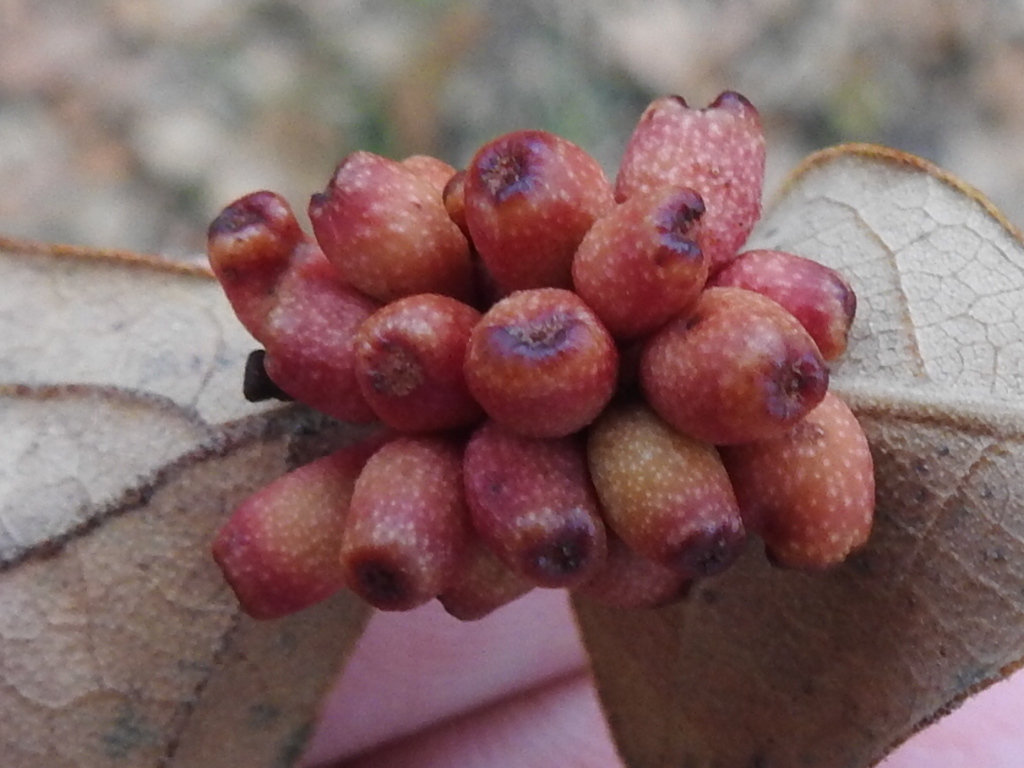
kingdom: Animalia
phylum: Arthropoda
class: Insecta
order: Hymenoptera
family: Cynipidae
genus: Andricus
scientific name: Andricus lustrans
